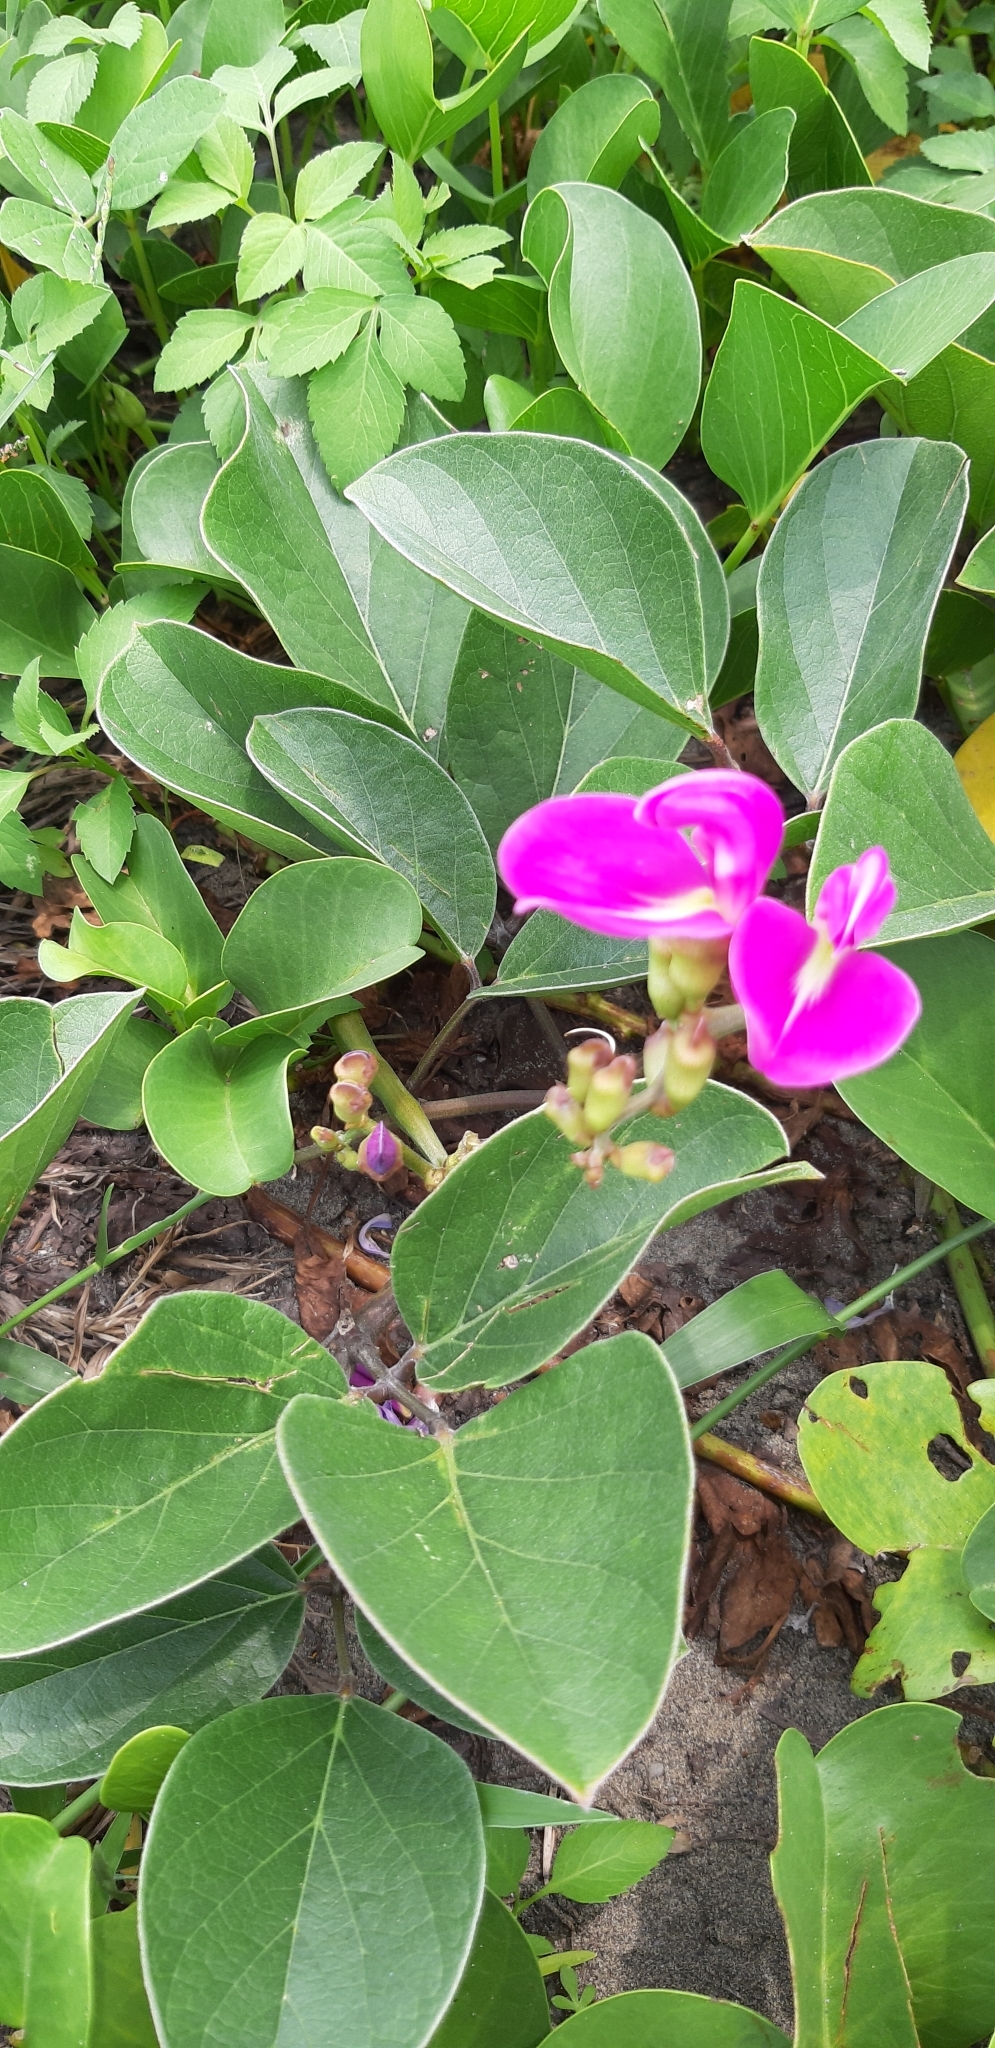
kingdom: Plantae
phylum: Tracheophyta
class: Magnoliopsida
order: Fabales
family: Fabaceae
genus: Canavalia
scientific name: Canavalia rosea
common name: Beach-bean
